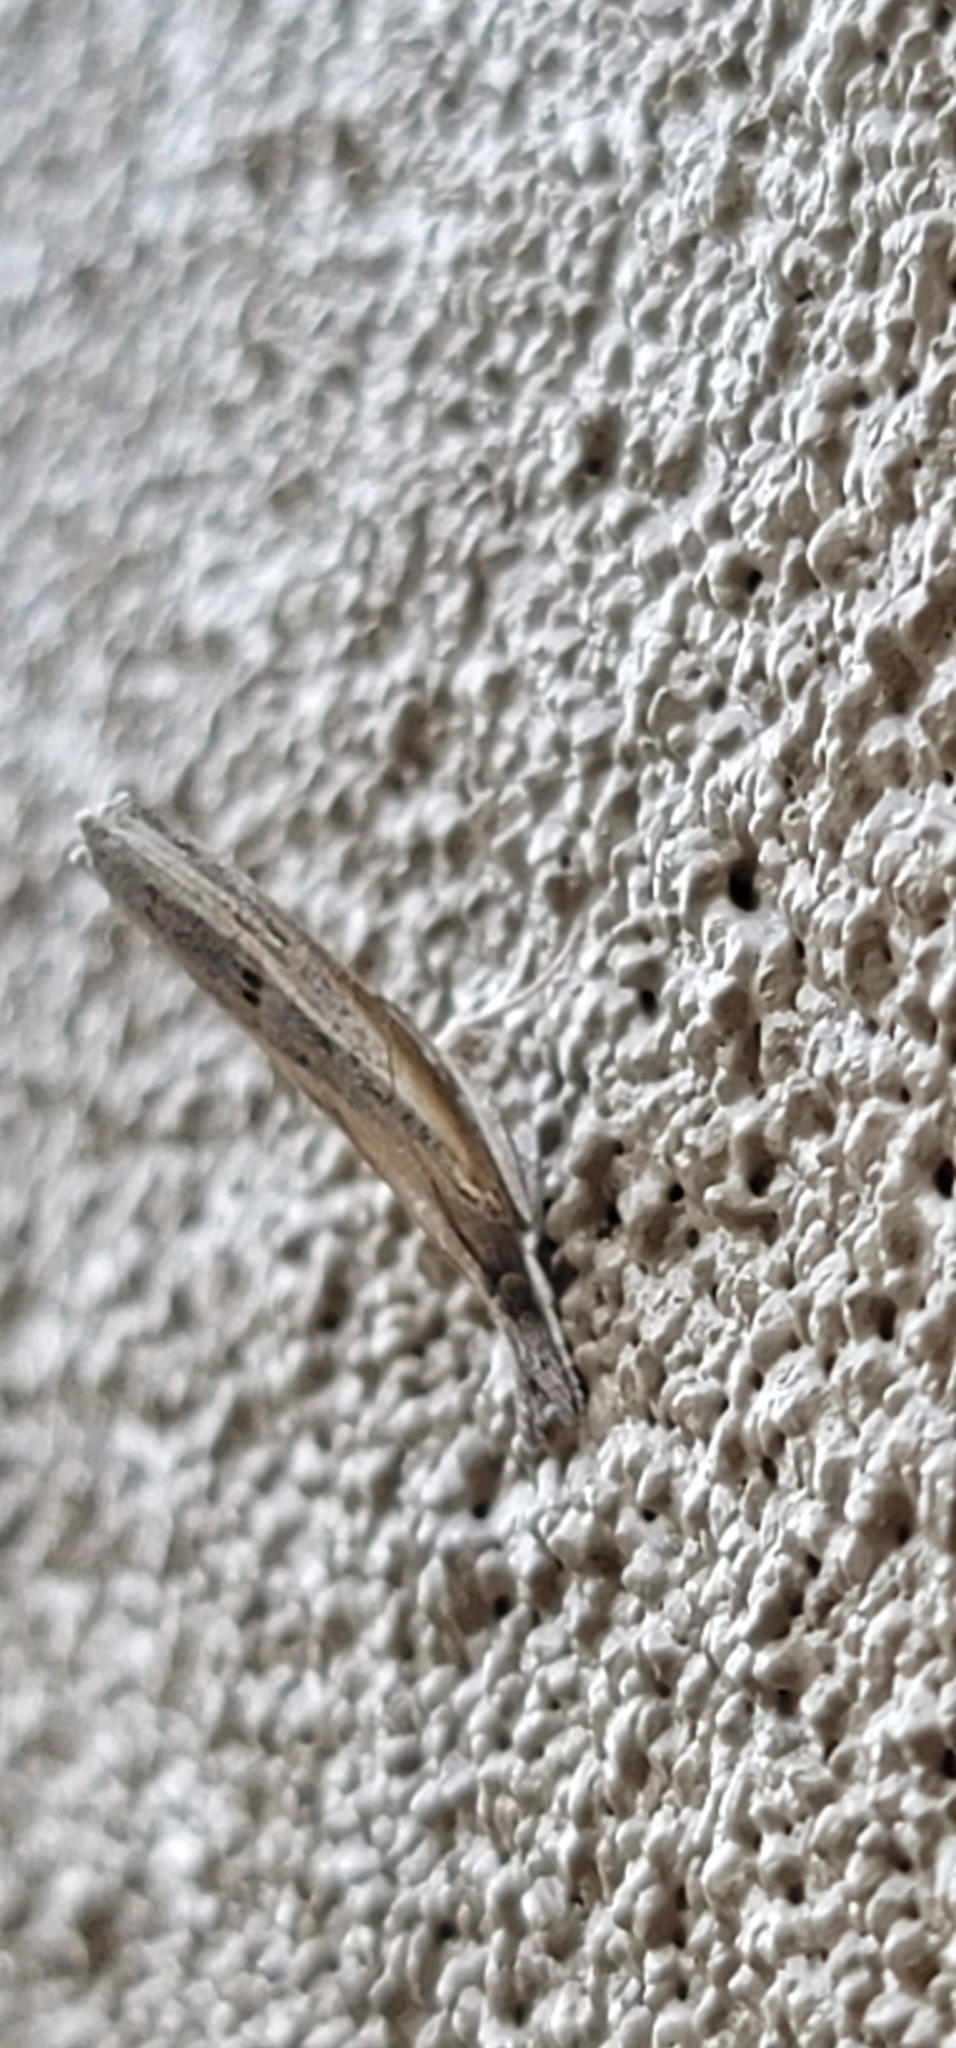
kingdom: Animalia
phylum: Arthropoda
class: Insecta
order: Lepidoptera
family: Crambidae
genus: Fissicrambus
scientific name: Fissicrambus mutabilis
